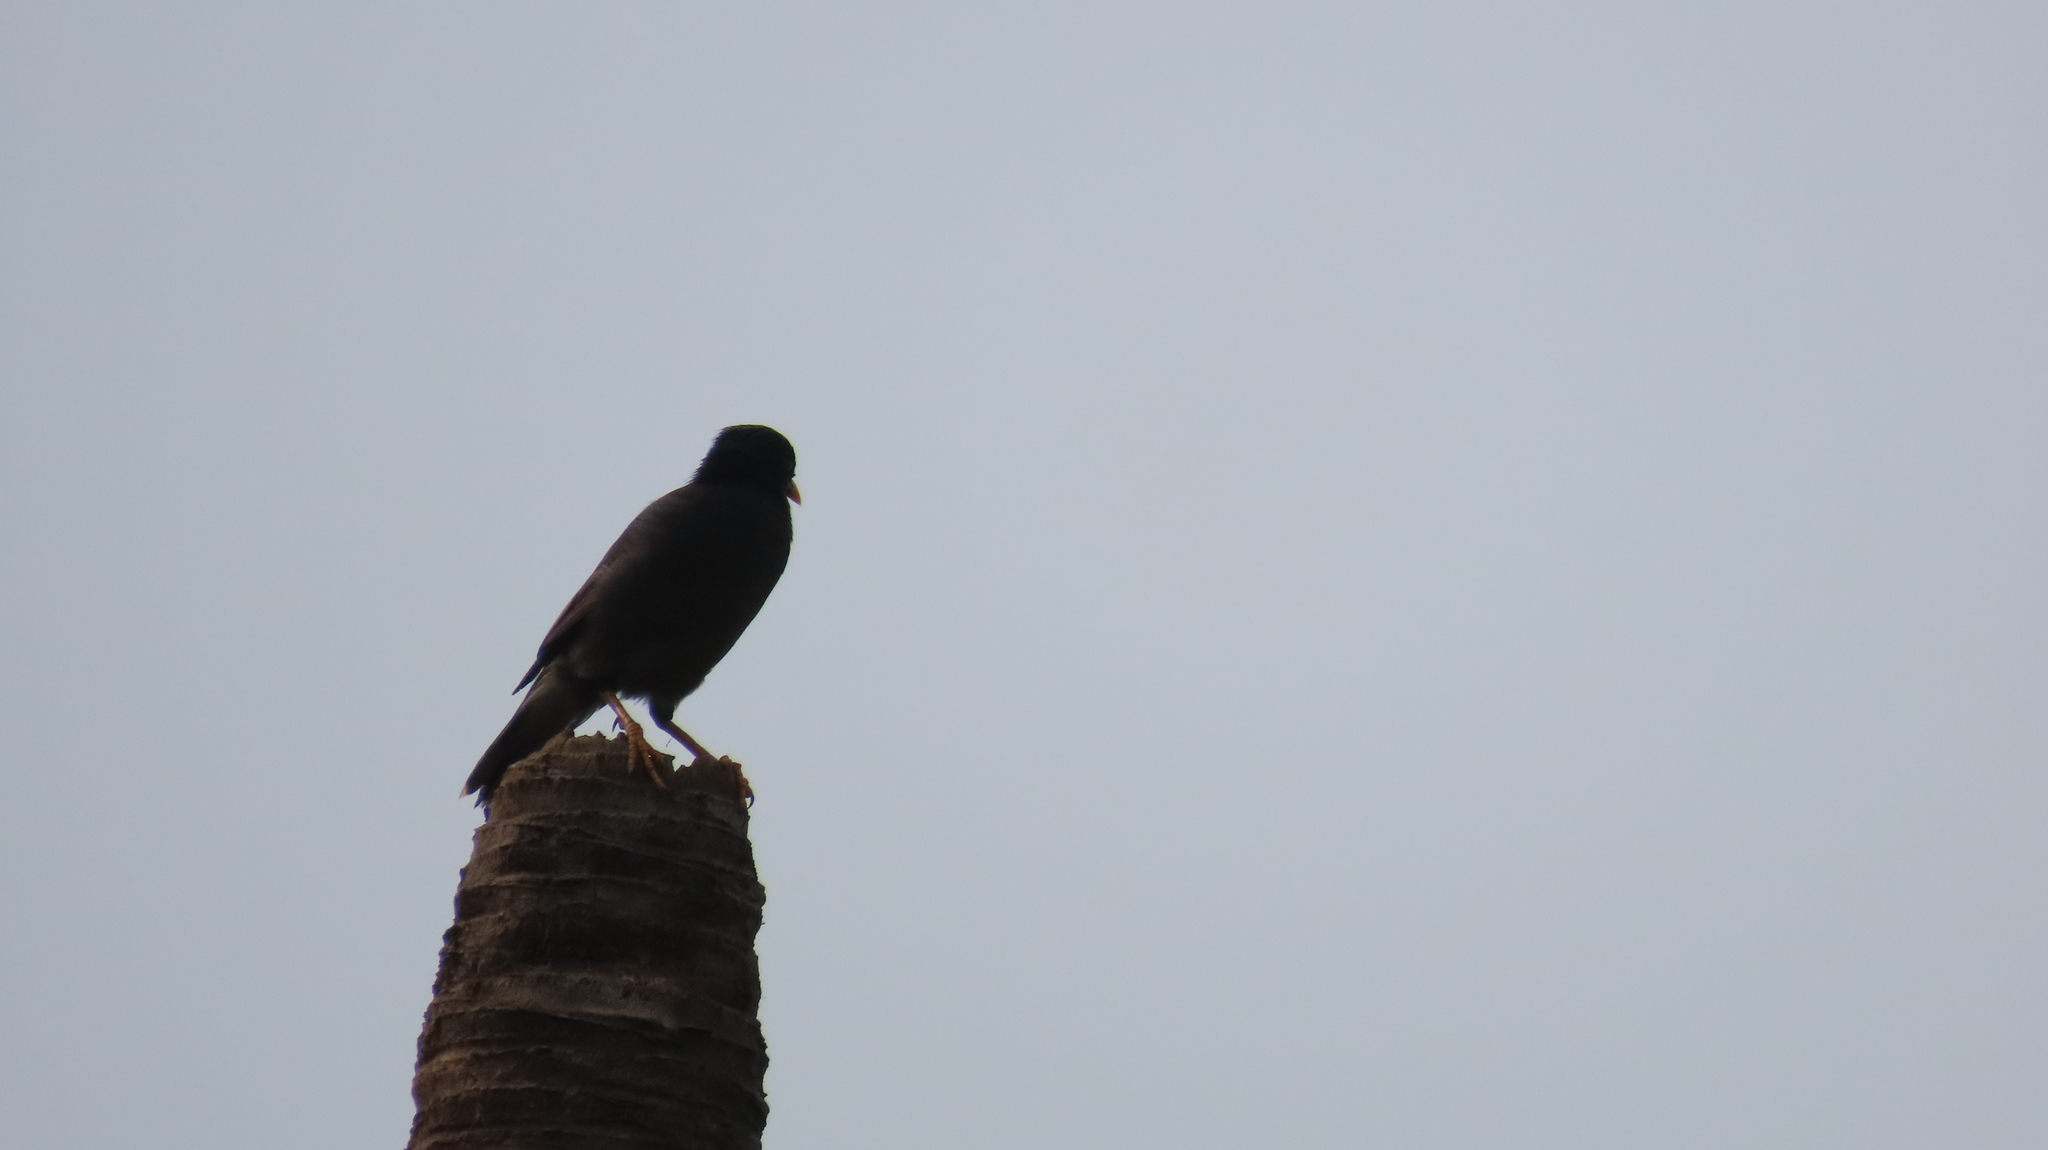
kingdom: Animalia
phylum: Chordata
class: Aves
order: Passeriformes
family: Sturnidae
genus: Acridotheres
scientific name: Acridotheres fuscus
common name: Jungle myna
